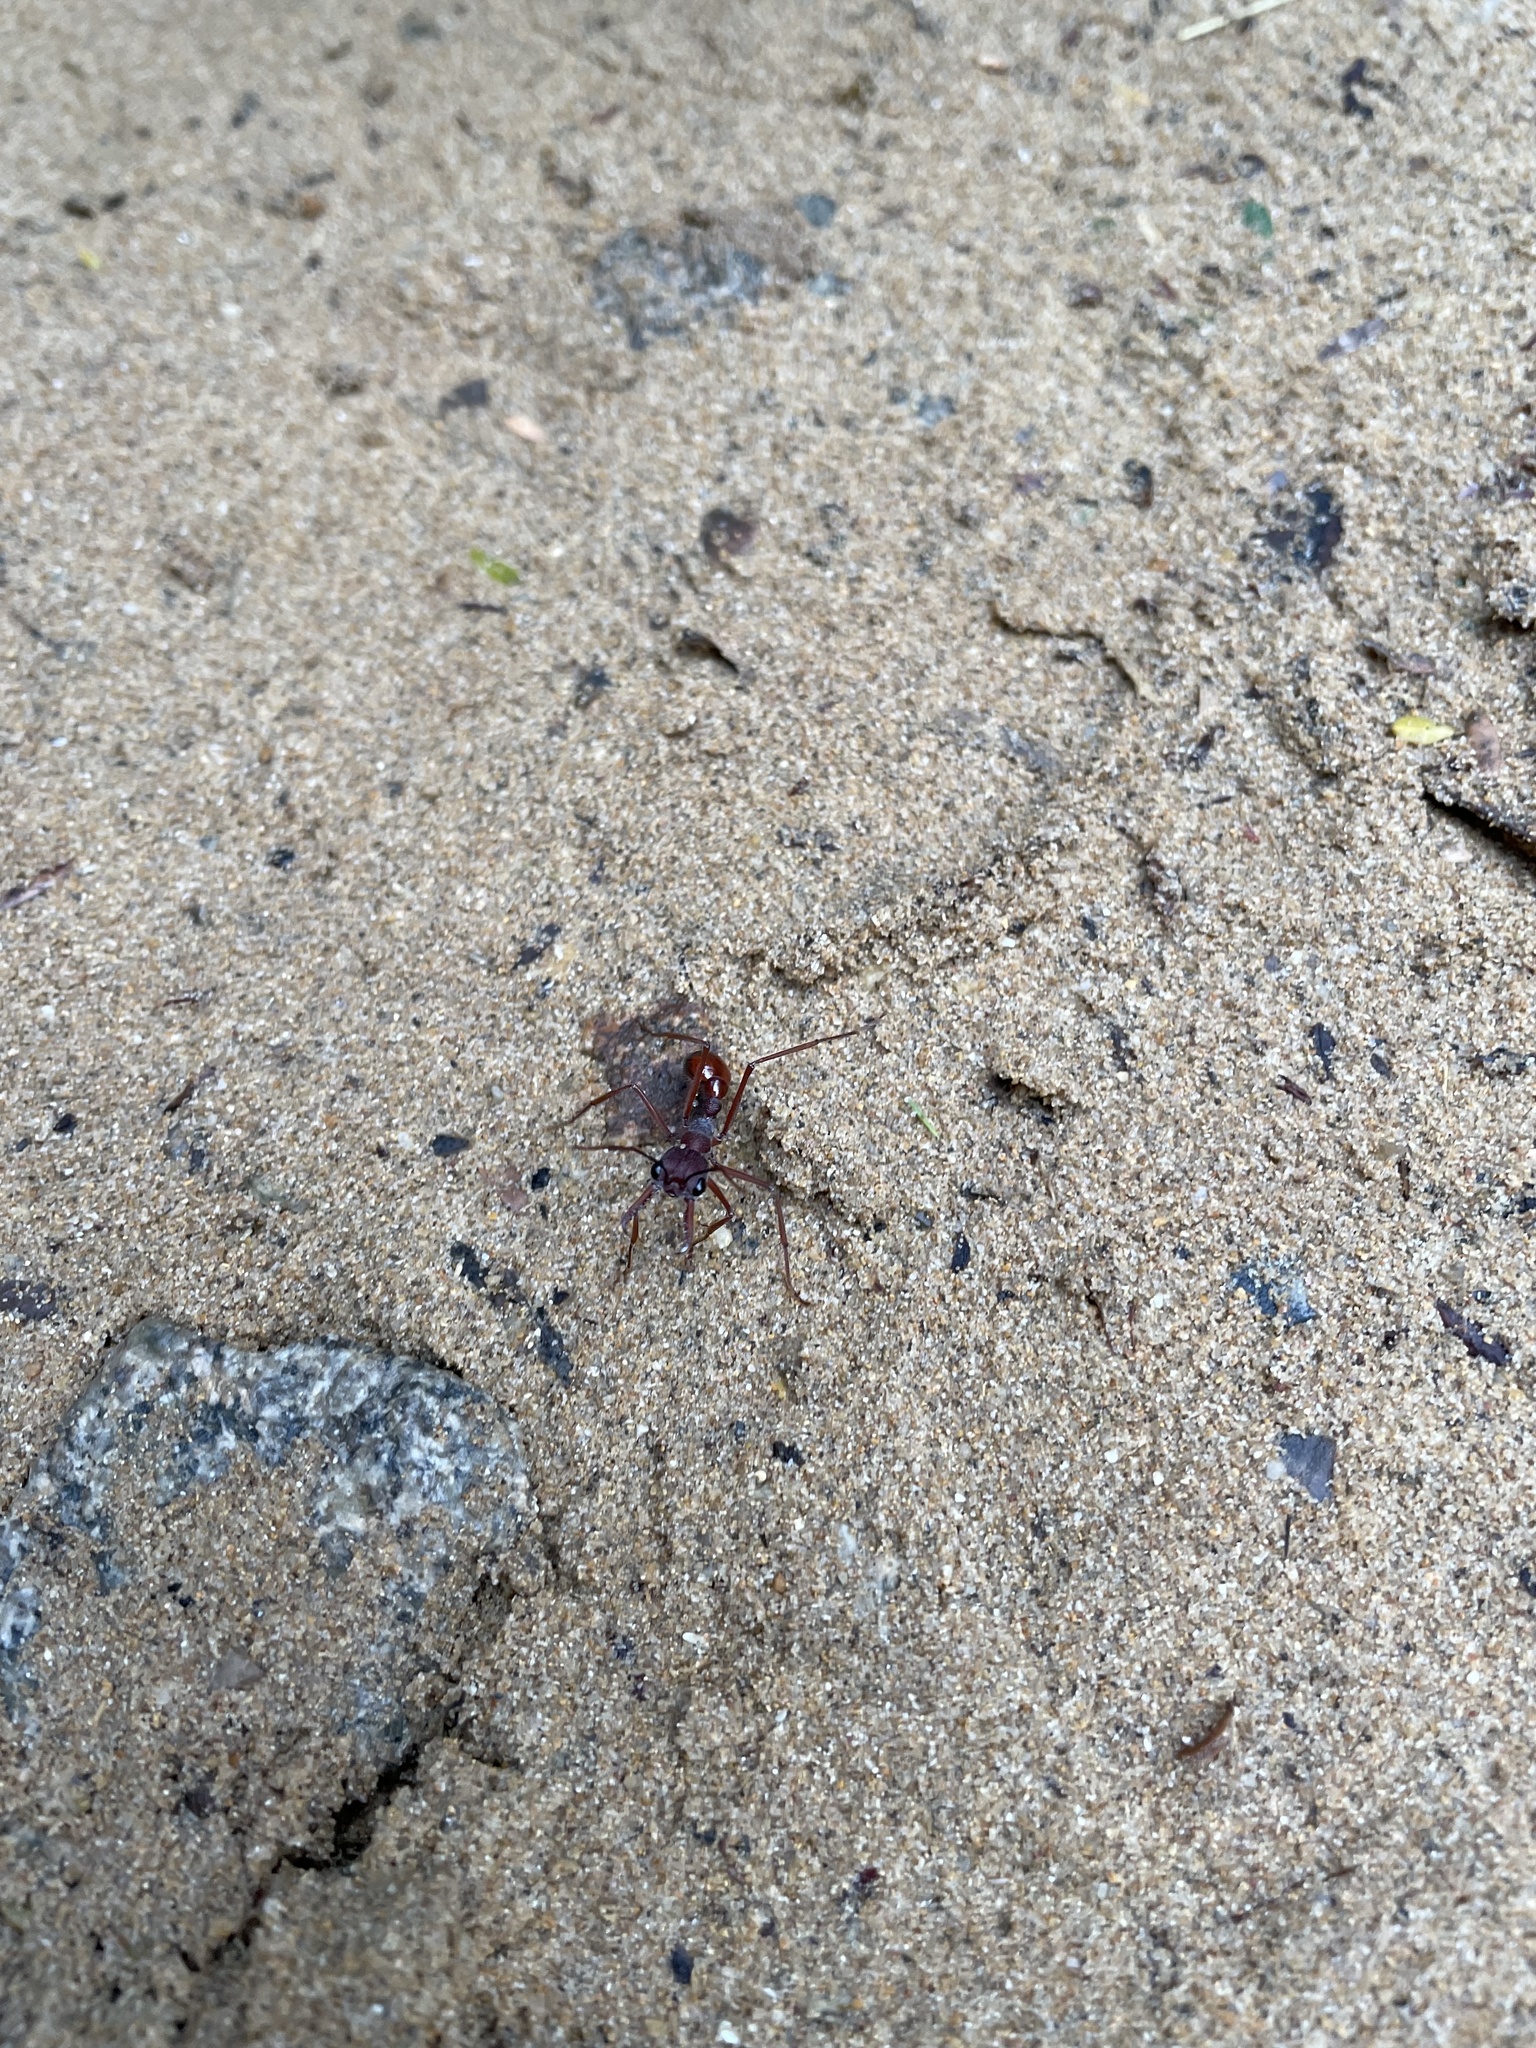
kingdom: Animalia
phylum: Arthropoda
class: Insecta
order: Hymenoptera
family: Formicidae
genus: Myrmecia
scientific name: Myrmecia nigriscapa
